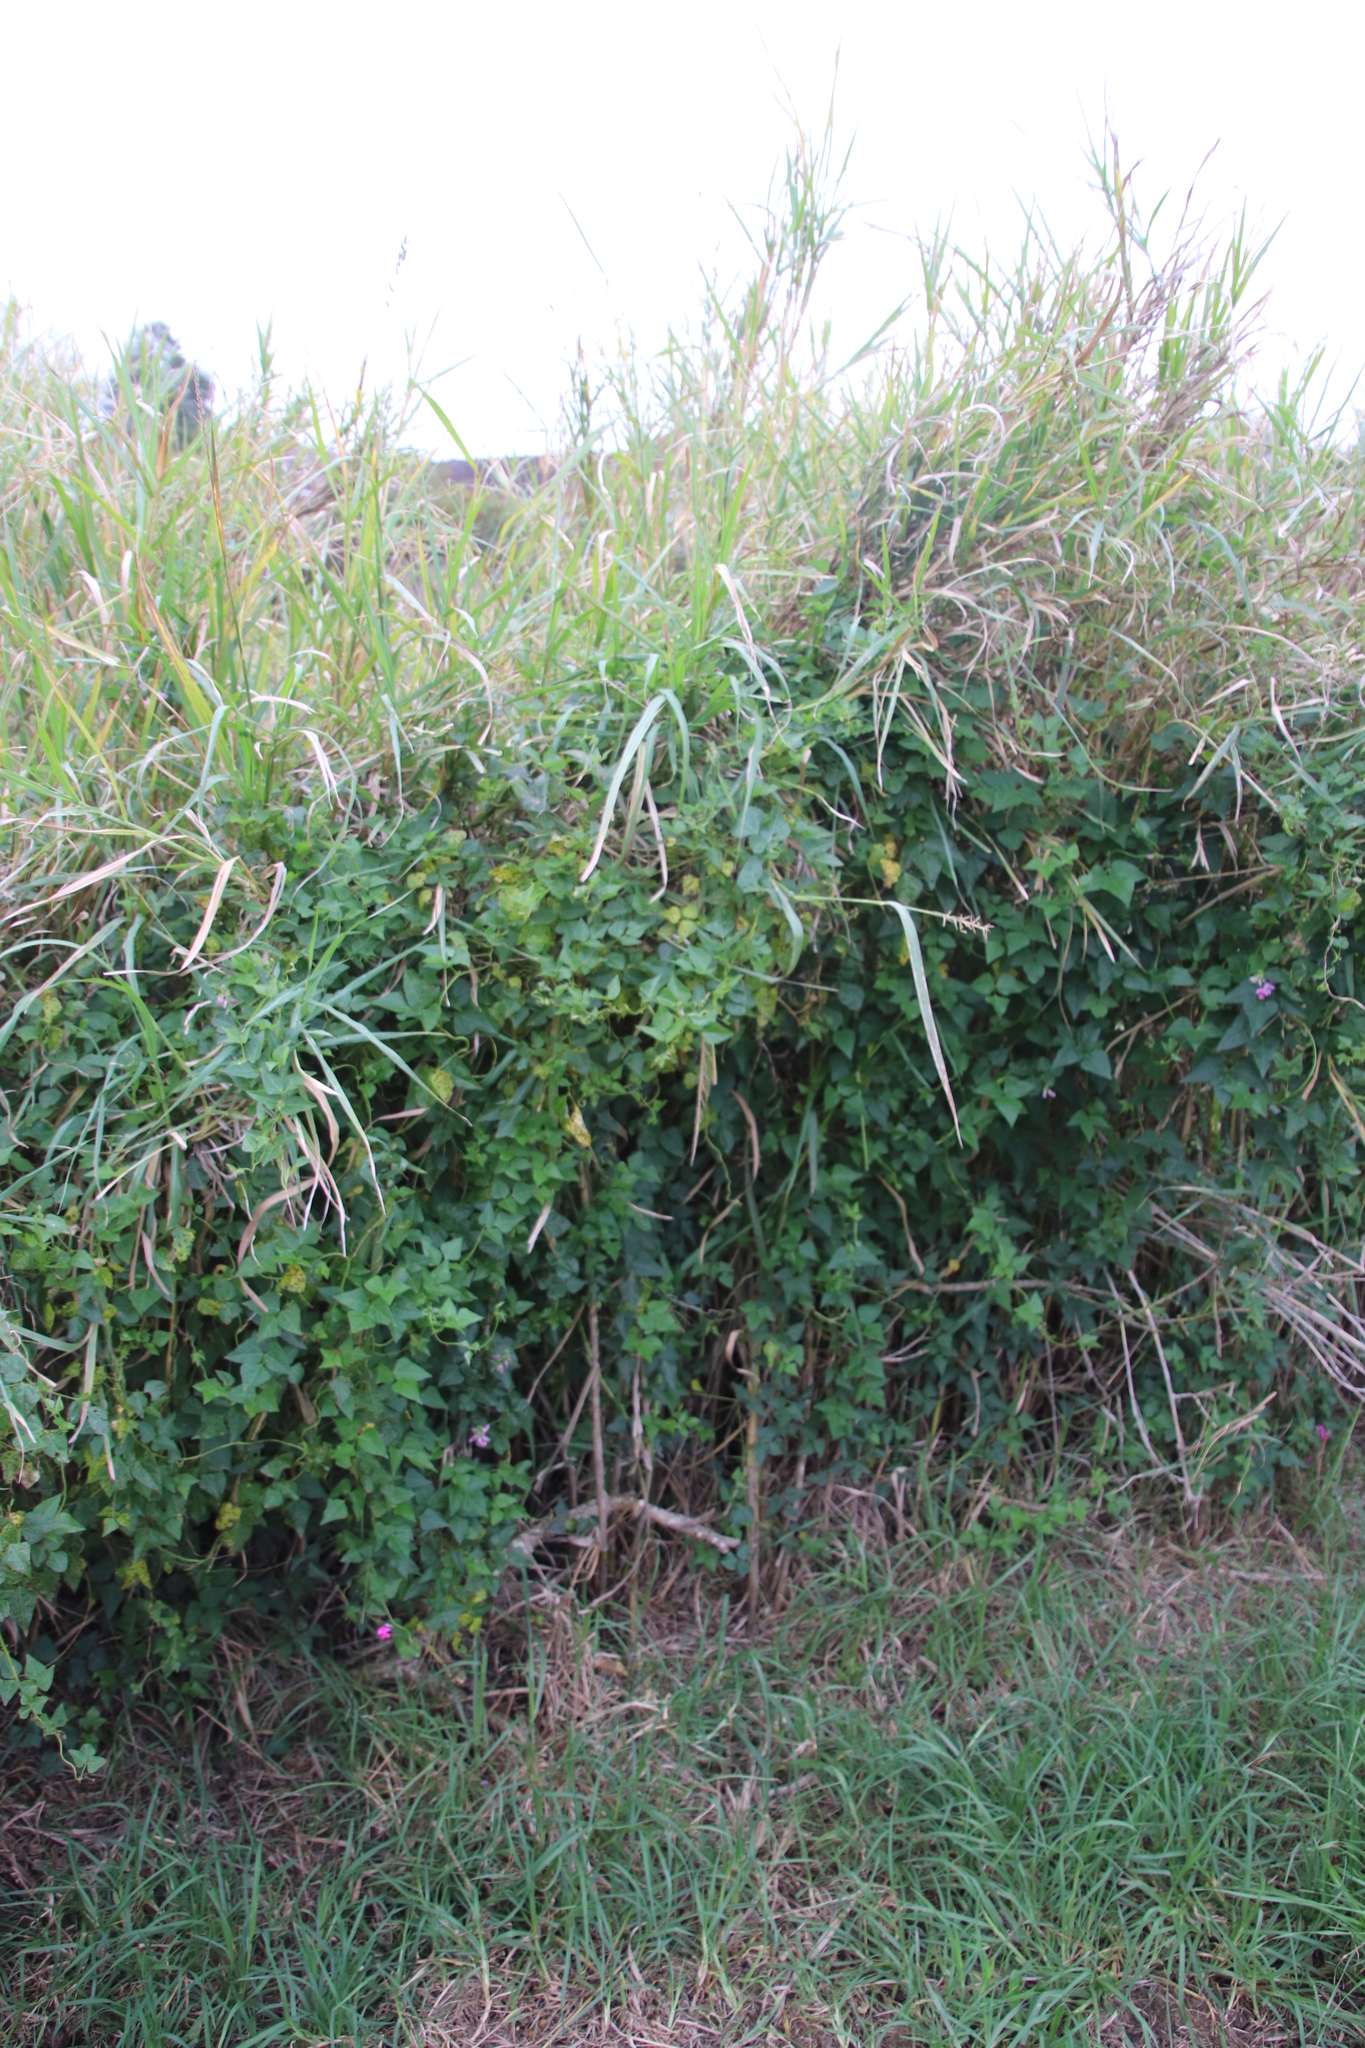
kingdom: Plantae
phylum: Tracheophyta
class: Magnoliopsida
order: Fabales
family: Fabaceae
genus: Dipogon
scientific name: Dipogon lignosus
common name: Okie bean
